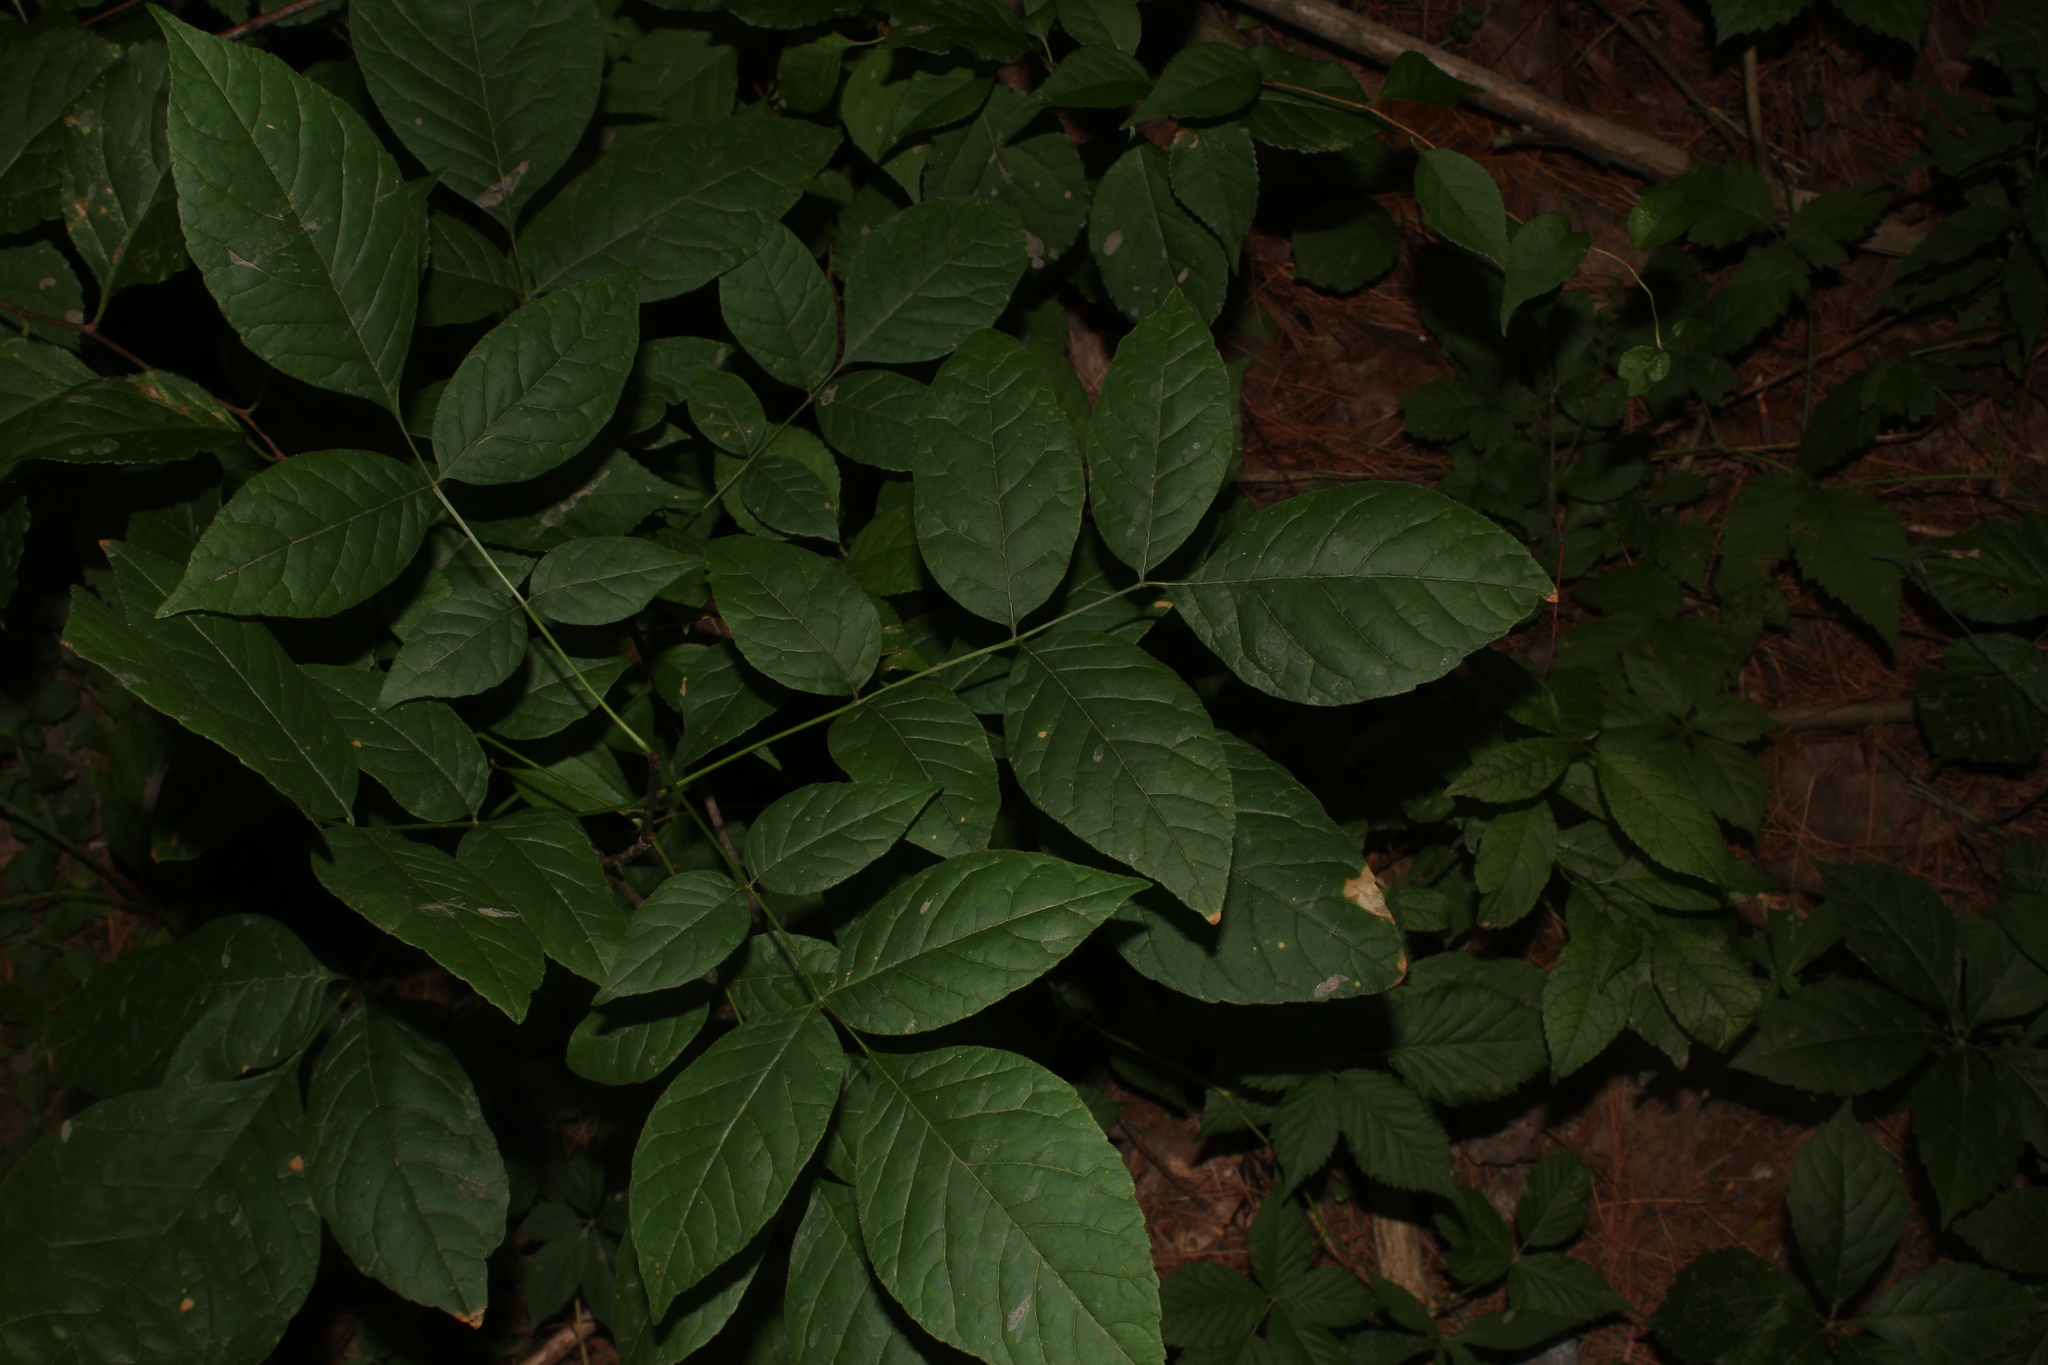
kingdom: Plantae
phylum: Tracheophyta
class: Magnoliopsida
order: Lamiales
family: Oleaceae
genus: Fraxinus
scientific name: Fraxinus americana
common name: White ash
